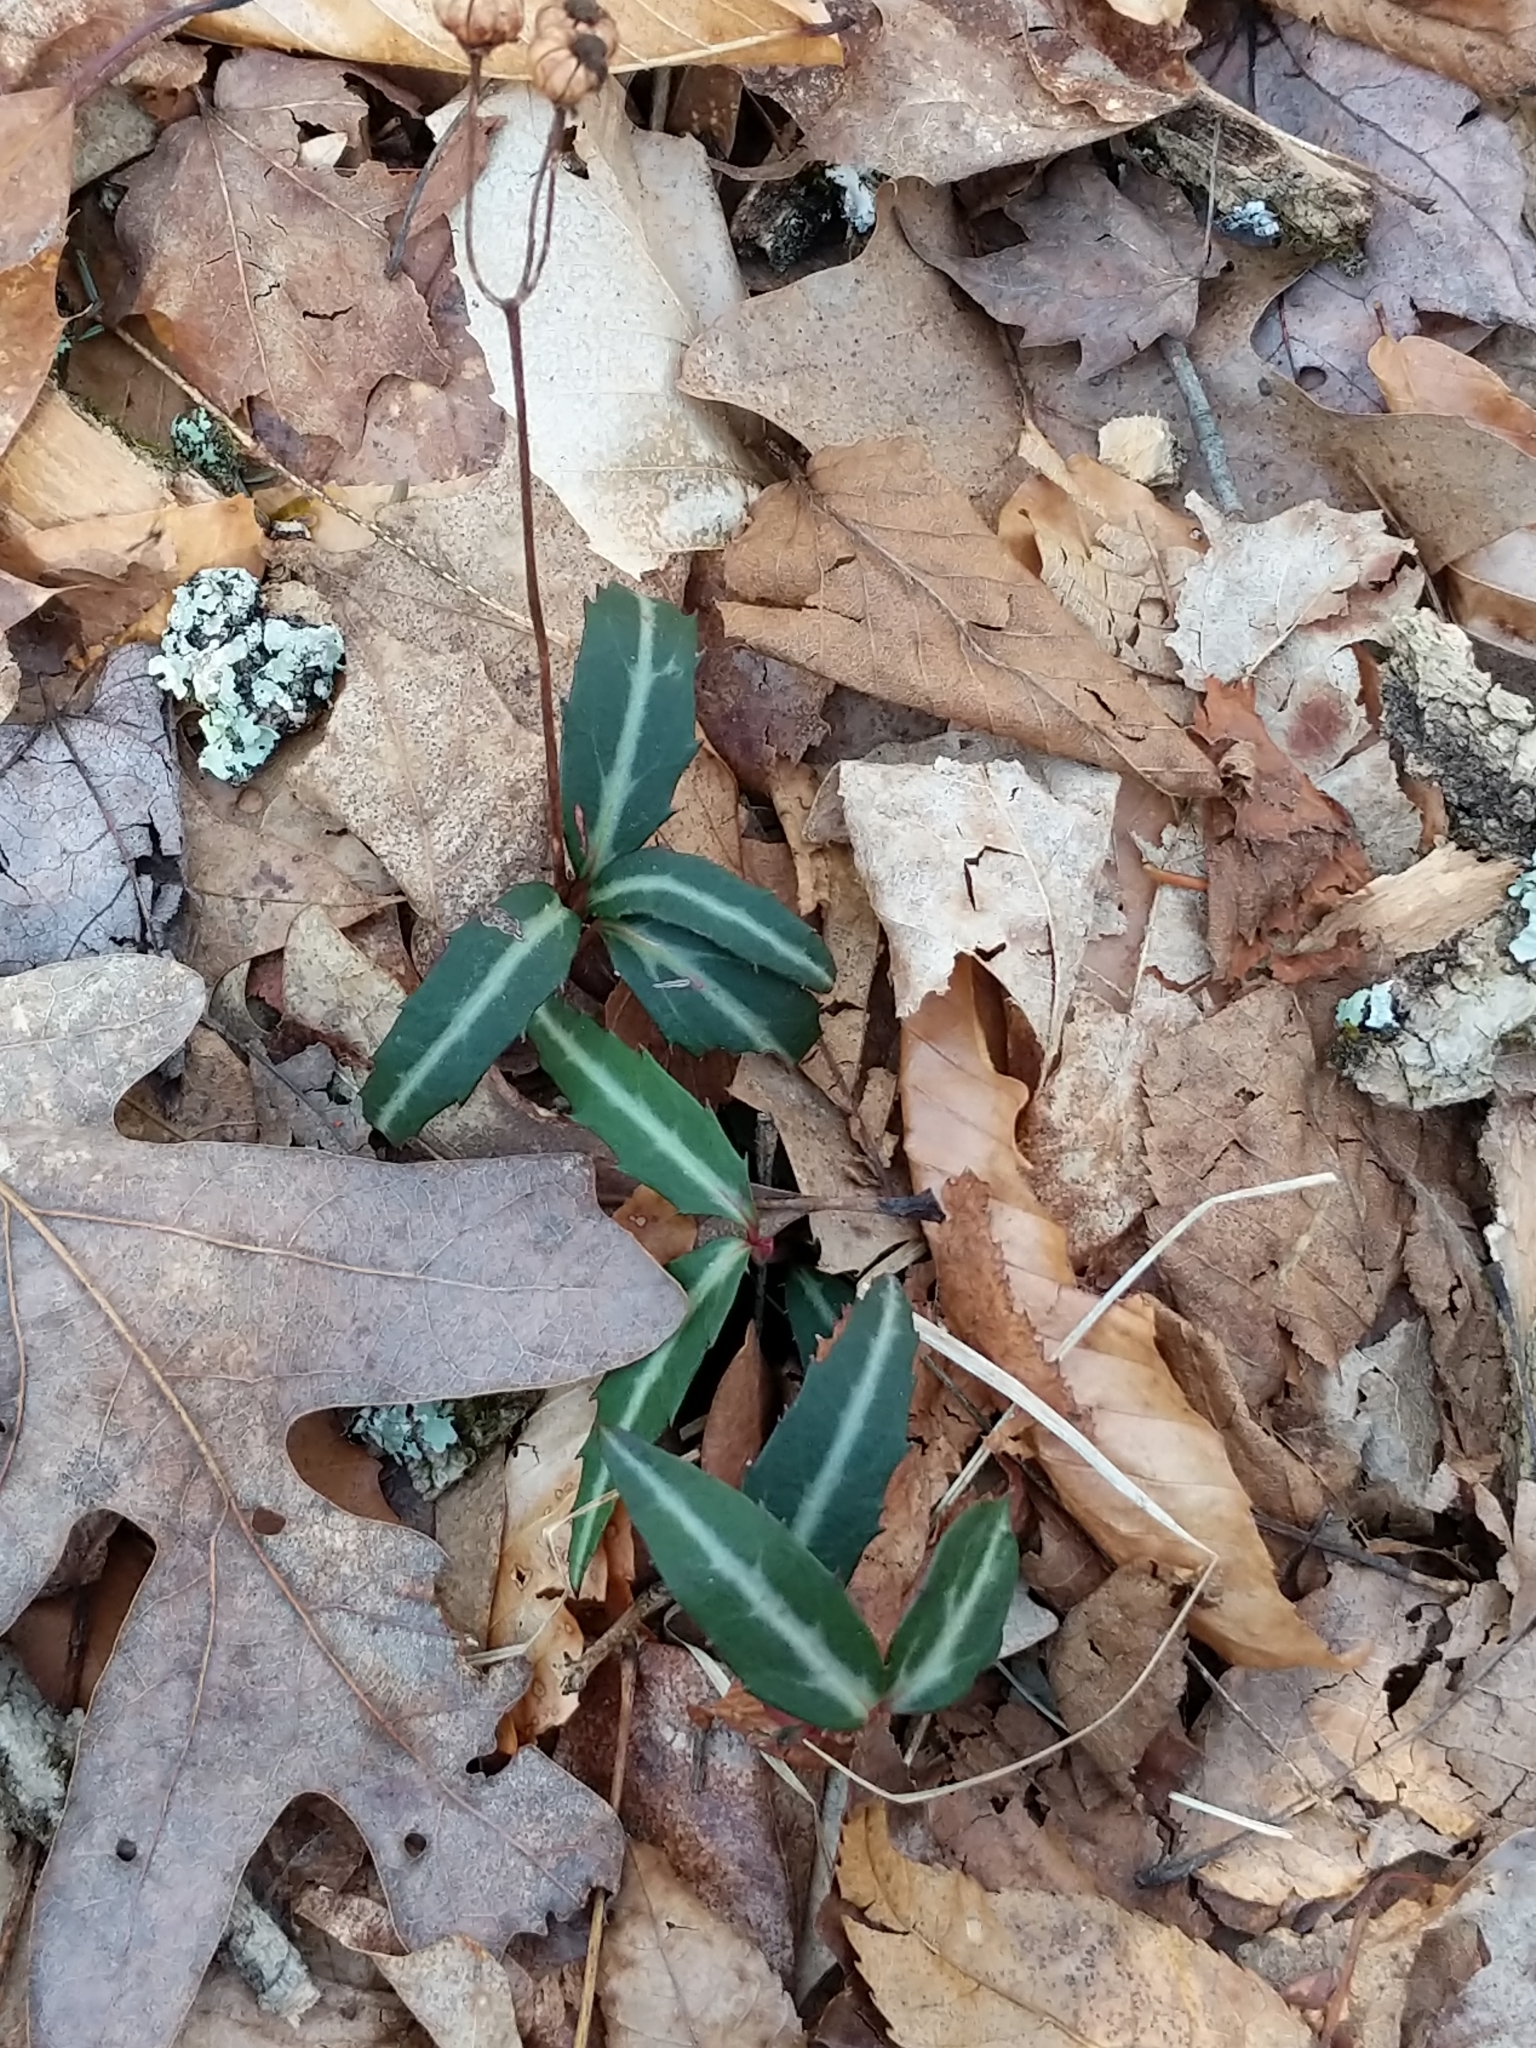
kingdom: Plantae
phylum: Tracheophyta
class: Magnoliopsida
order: Ericales
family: Ericaceae
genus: Chimaphila
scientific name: Chimaphila maculata
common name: Spotted pipsissewa
